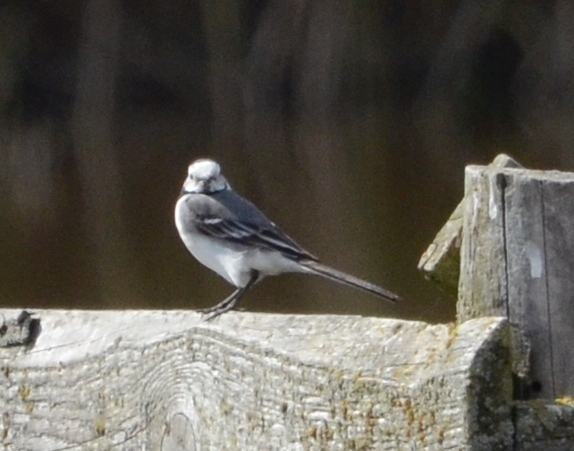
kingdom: Animalia
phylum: Chordata
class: Aves
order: Passeriformes
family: Motacillidae
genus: Motacilla
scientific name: Motacilla alba
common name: White wagtail
